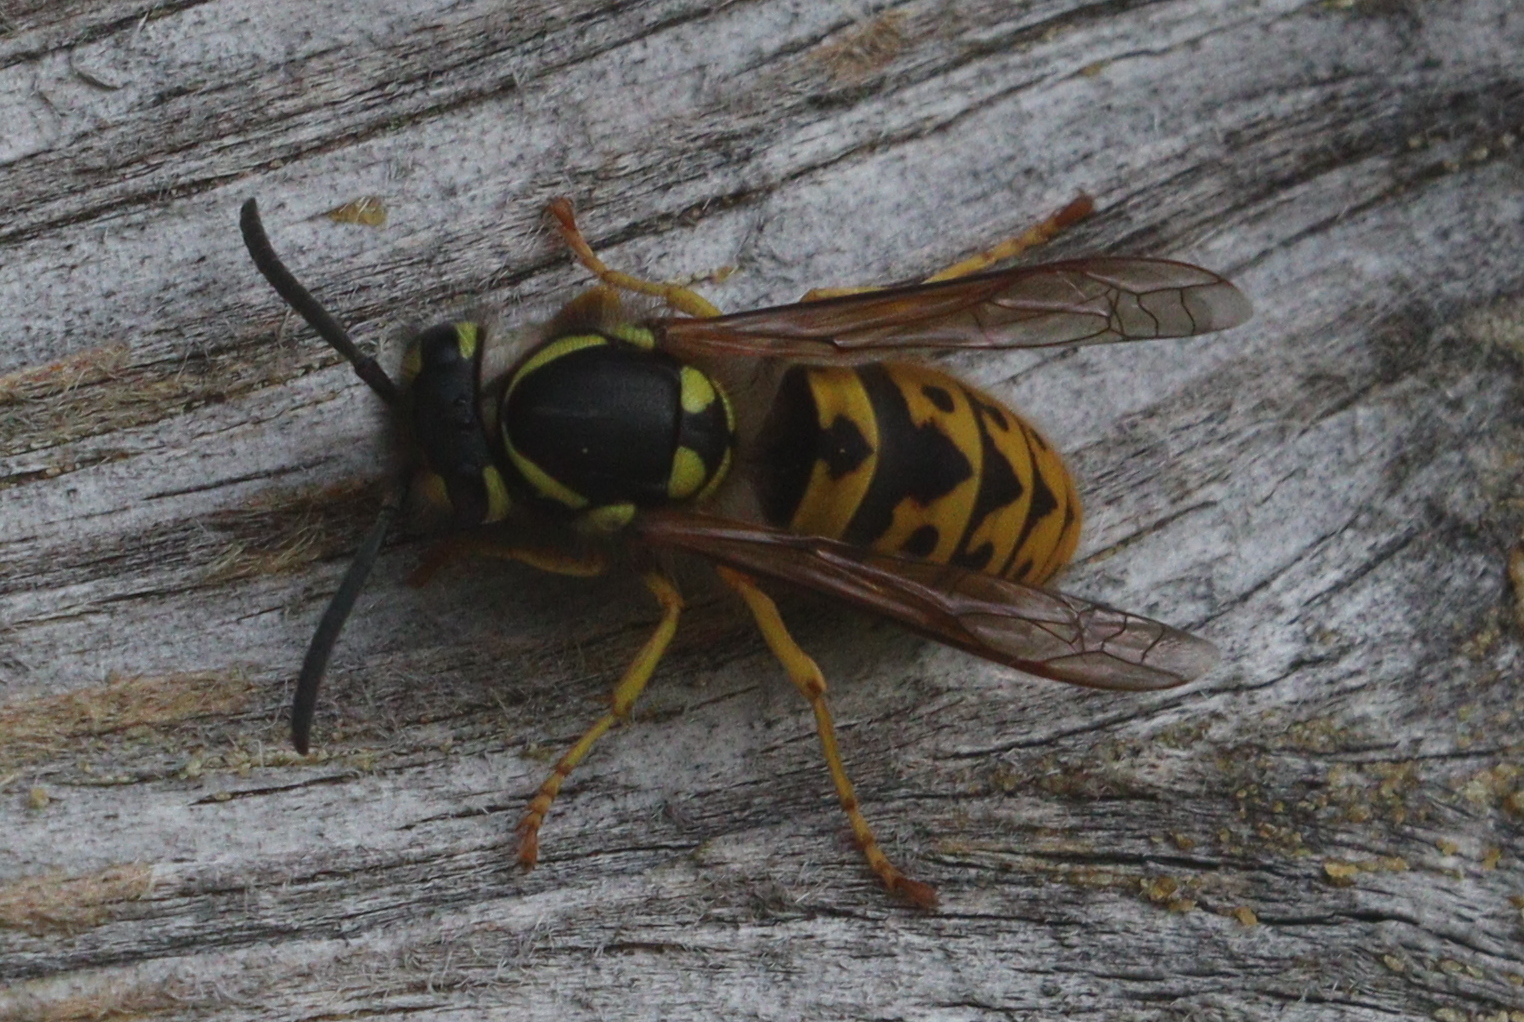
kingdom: Animalia
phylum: Arthropoda
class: Insecta
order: Hymenoptera
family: Vespidae
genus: Vespula
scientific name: Vespula germanica
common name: German wasp
